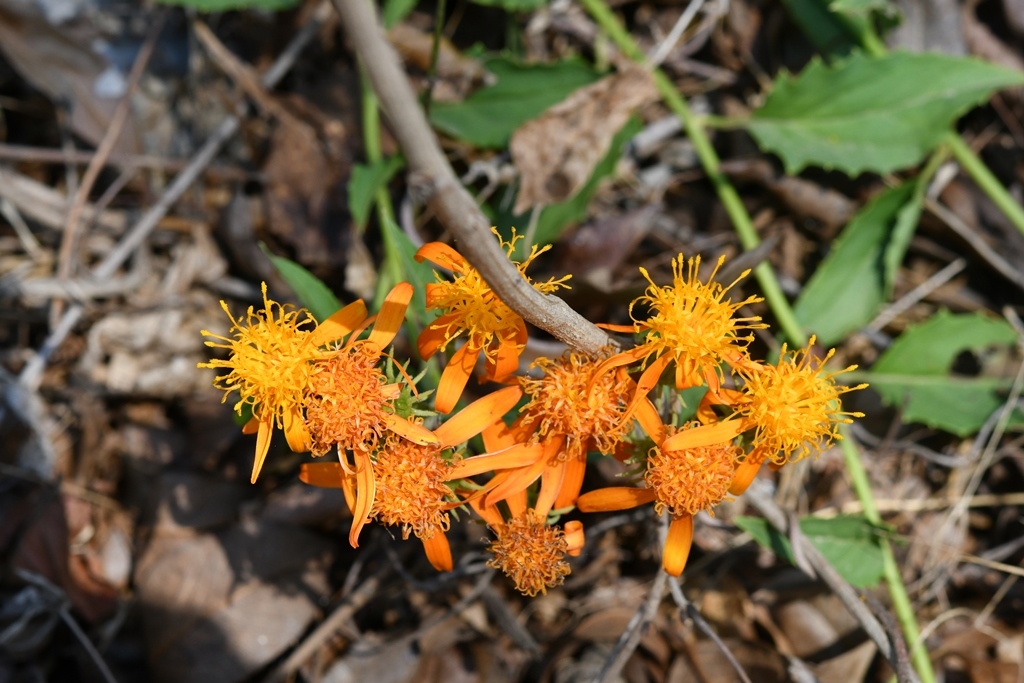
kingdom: Plantae
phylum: Tracheophyta
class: Magnoliopsida
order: Asterales
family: Asteraceae
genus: Pseudogynoxys
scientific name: Pseudogynoxys haenkei
